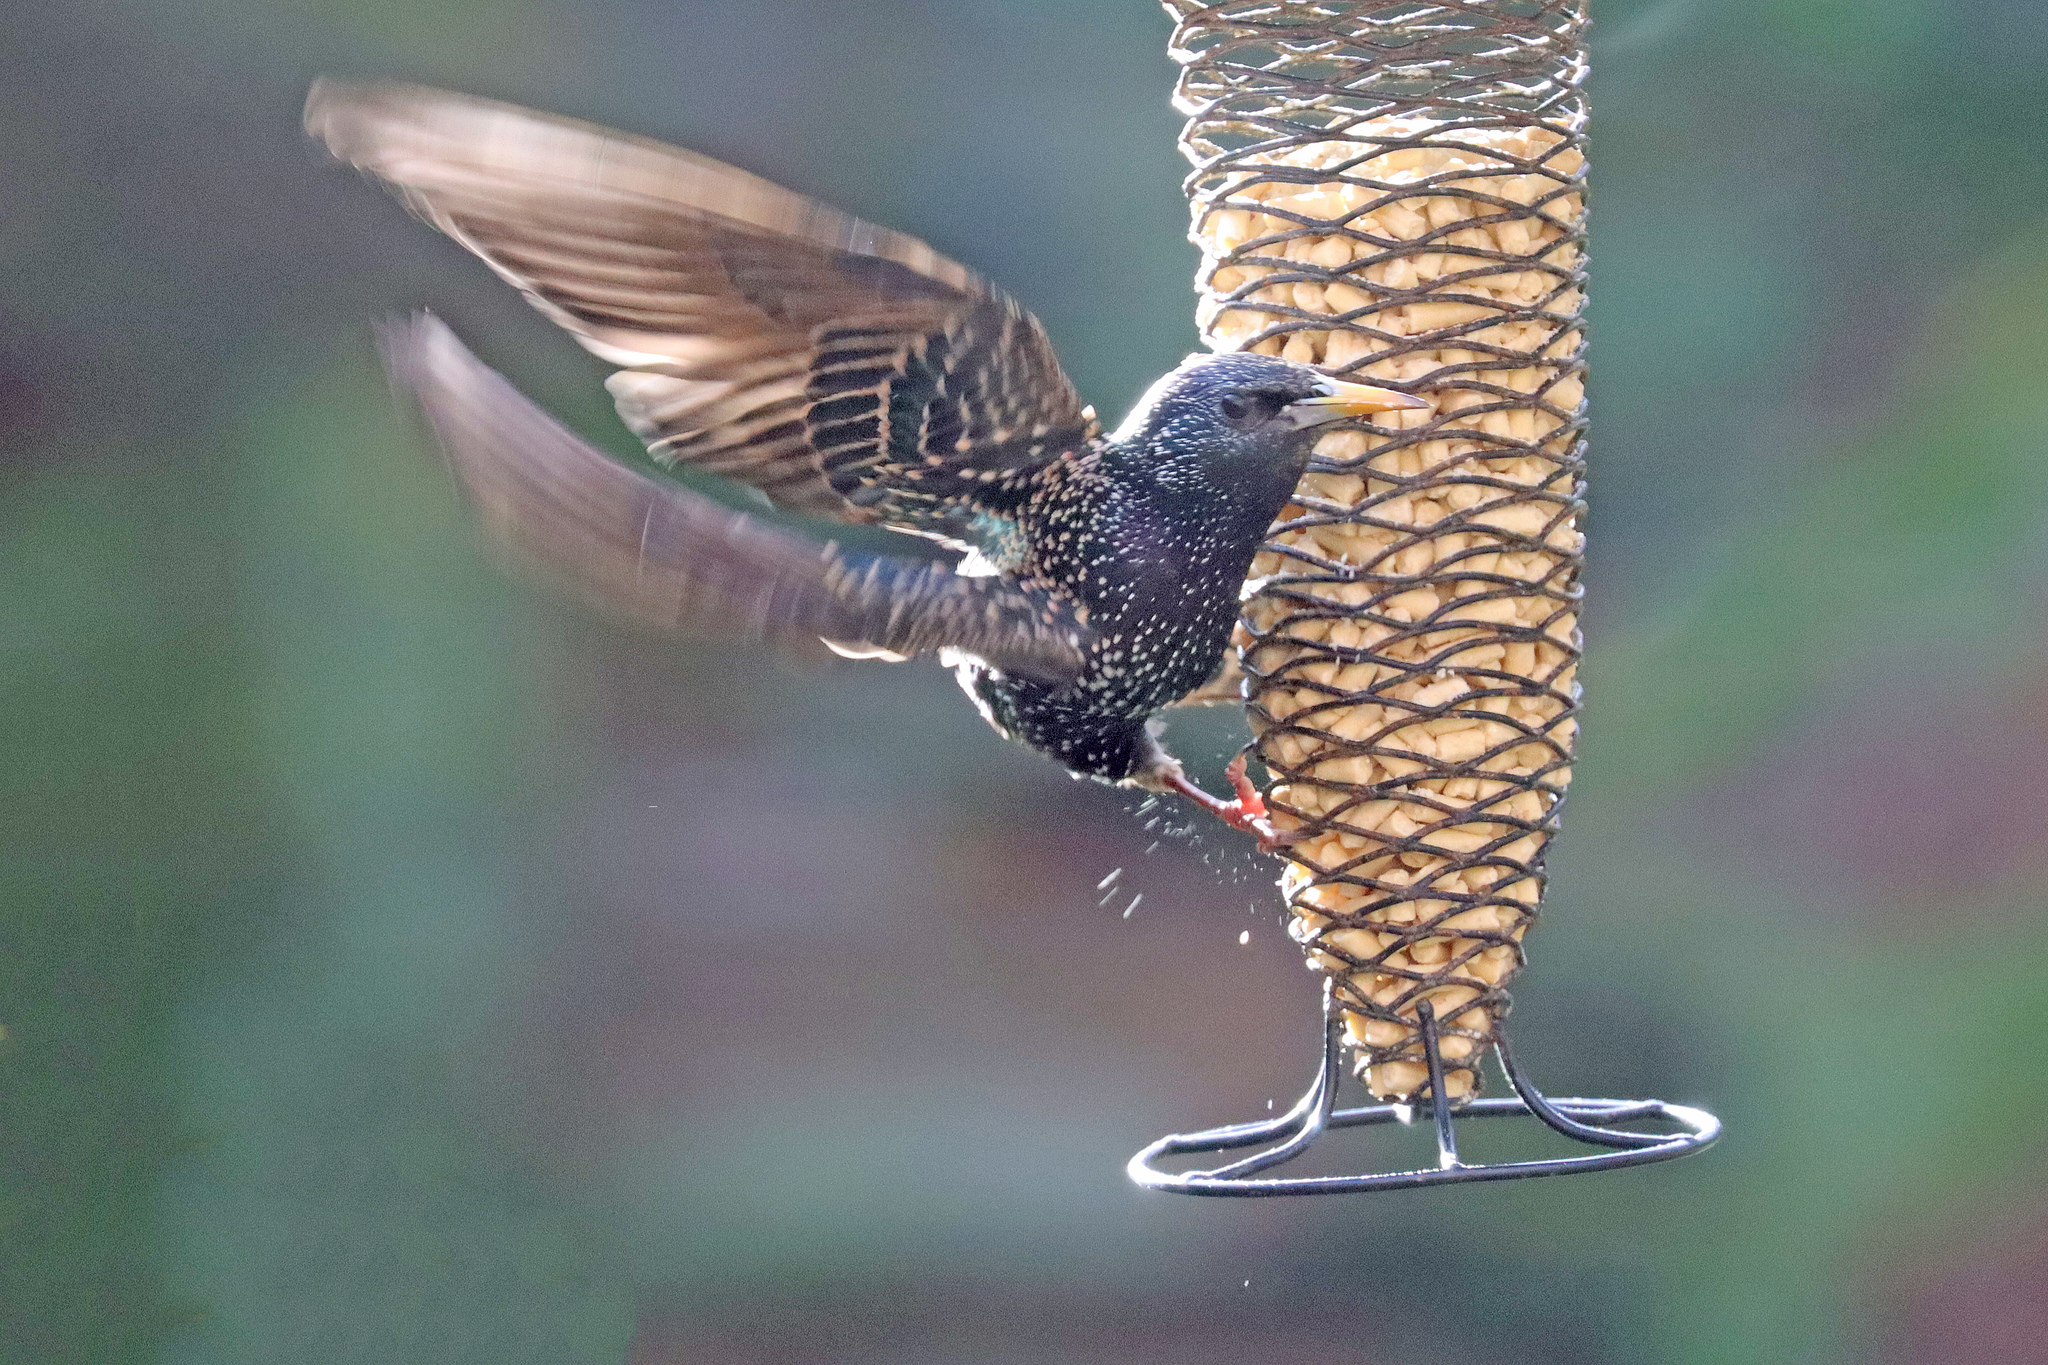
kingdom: Animalia
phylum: Chordata
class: Aves
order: Passeriformes
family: Sturnidae
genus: Sturnus
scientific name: Sturnus vulgaris
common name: Common starling
